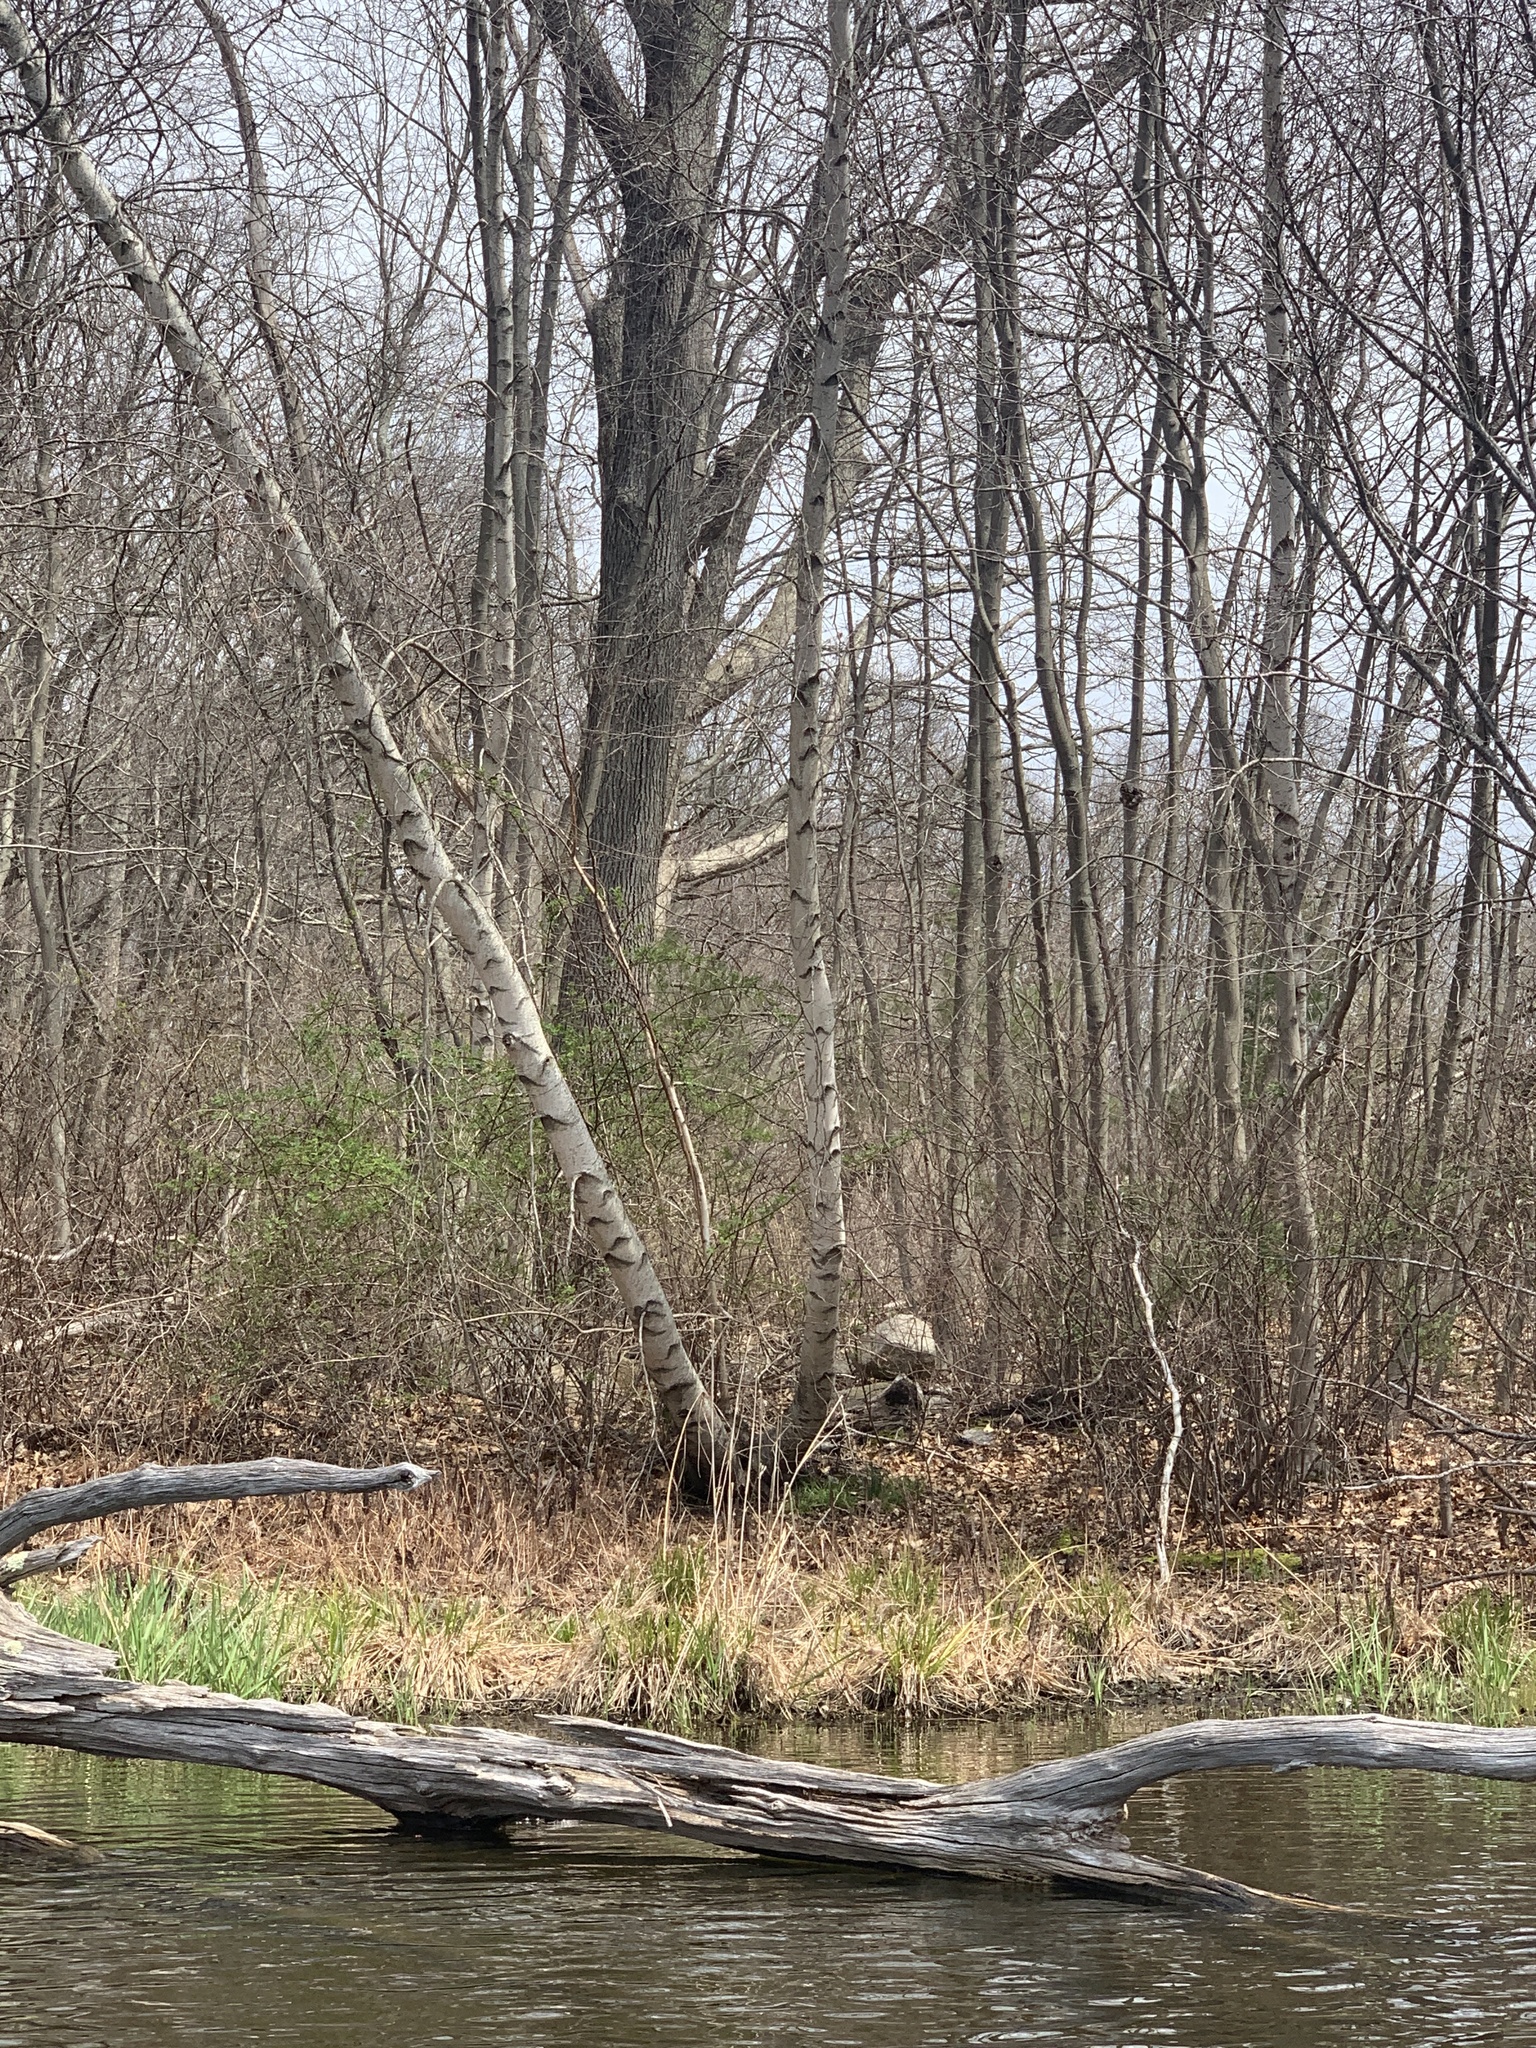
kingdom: Plantae
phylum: Tracheophyta
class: Magnoliopsida
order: Fagales
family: Betulaceae
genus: Betula
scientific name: Betula populifolia
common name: Fire birch
